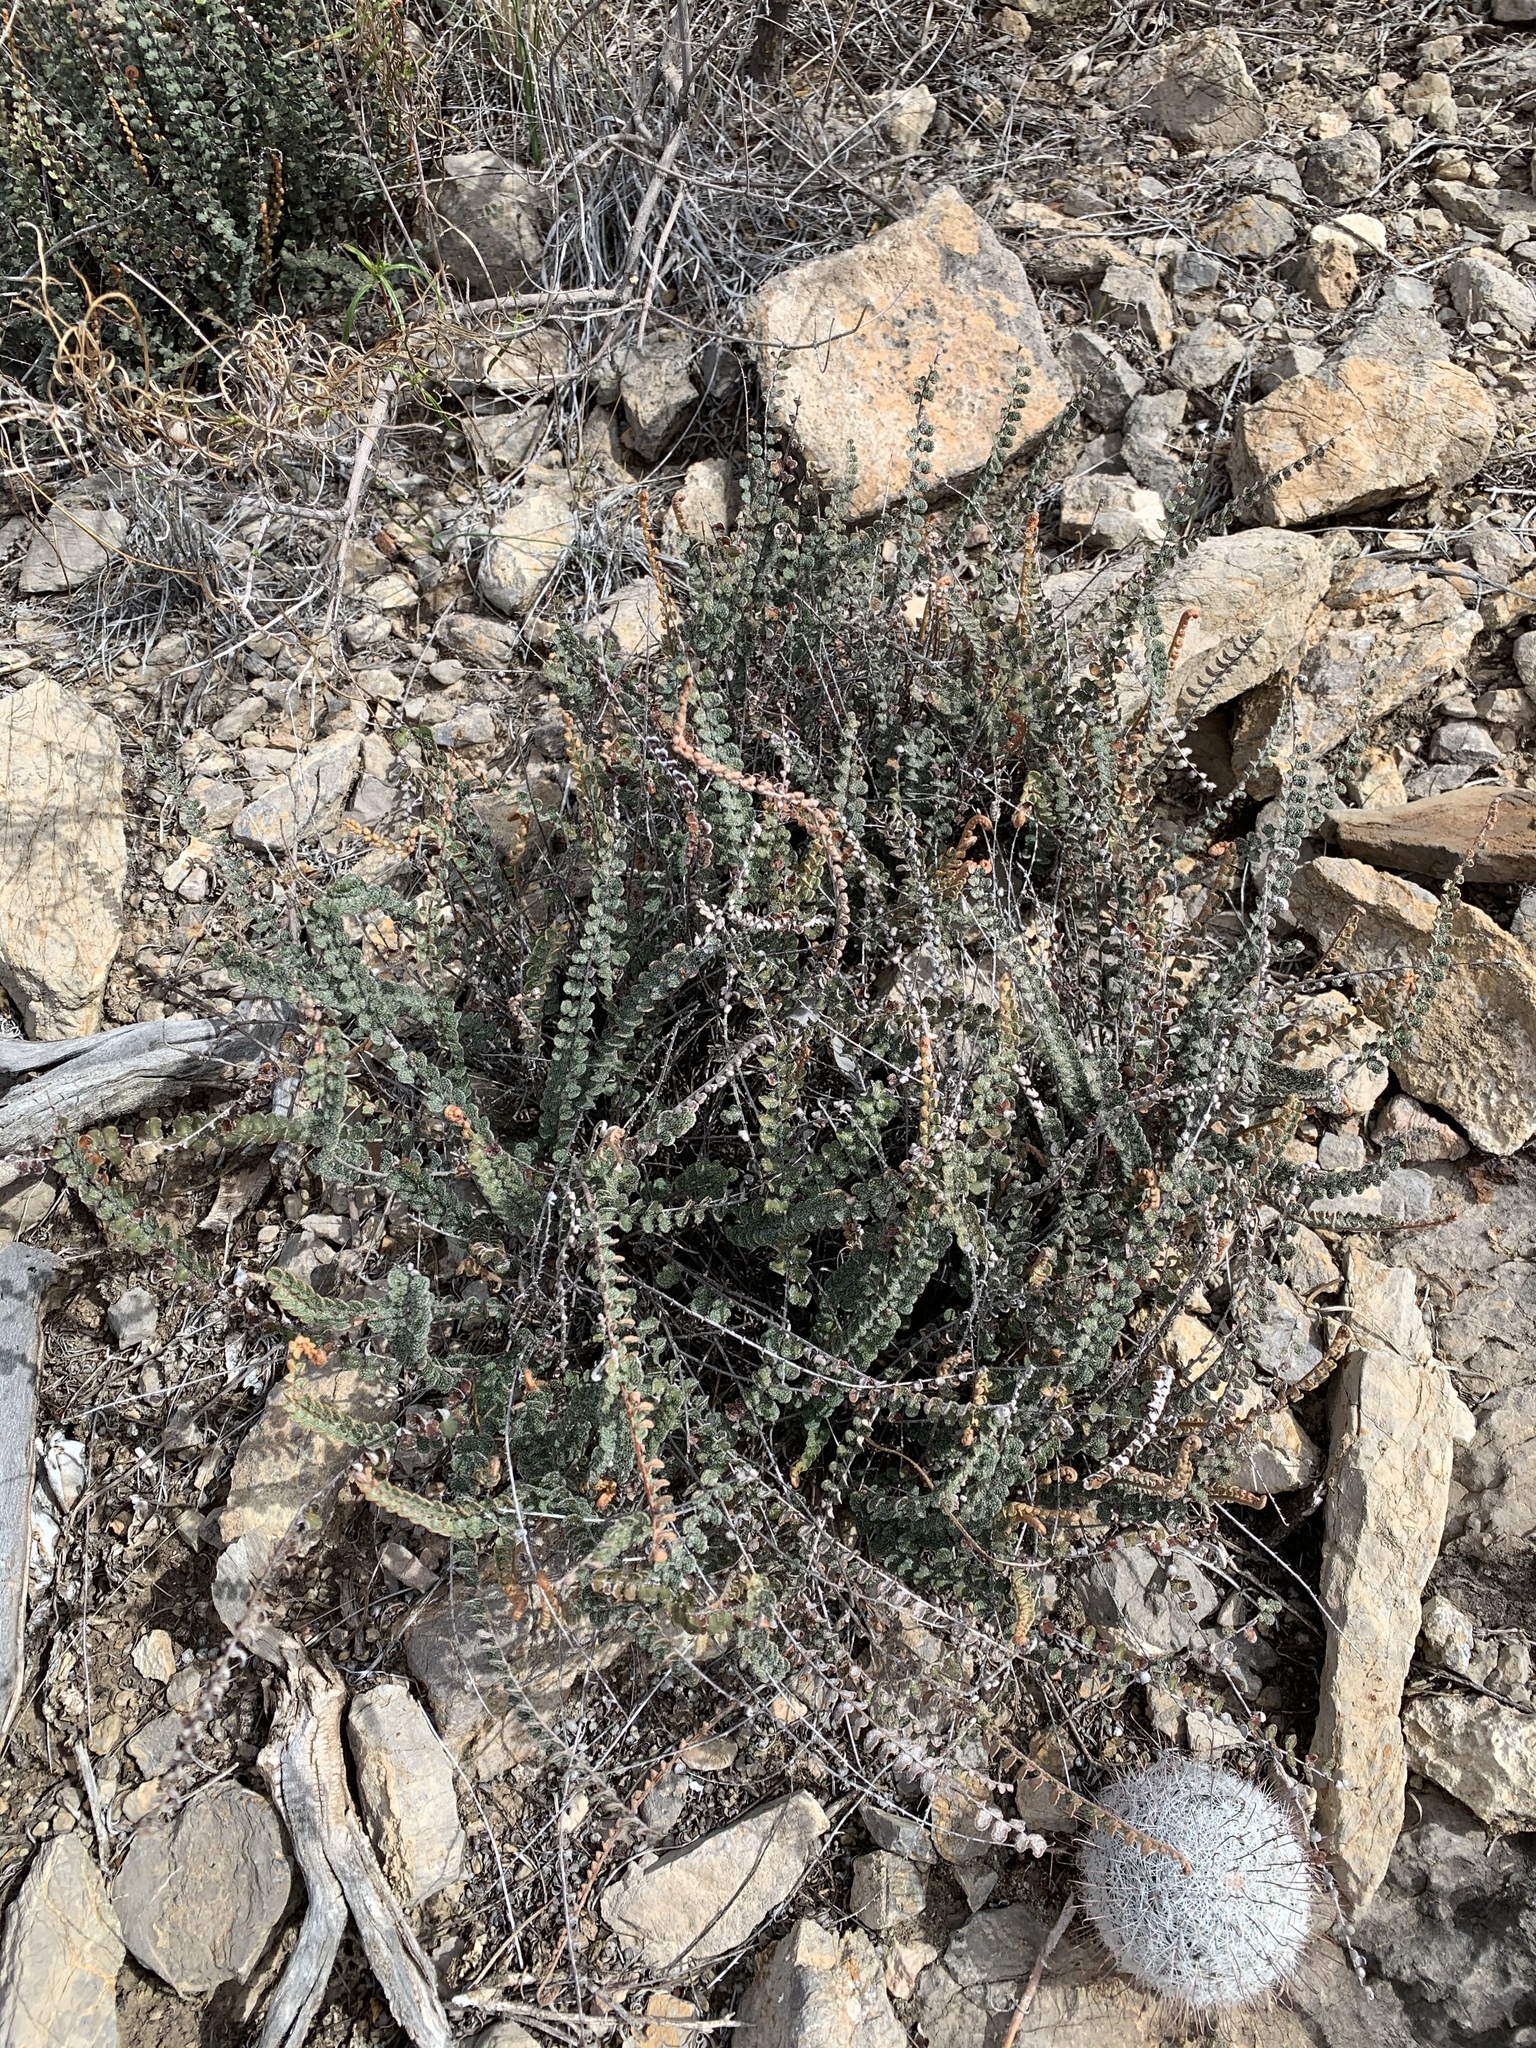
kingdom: Plantae
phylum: Tracheophyta
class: Polypodiopsida
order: Polypodiales
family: Pteridaceae
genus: Astrolepis
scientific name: Astrolepis cochisensis
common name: Scaly cloak fern
